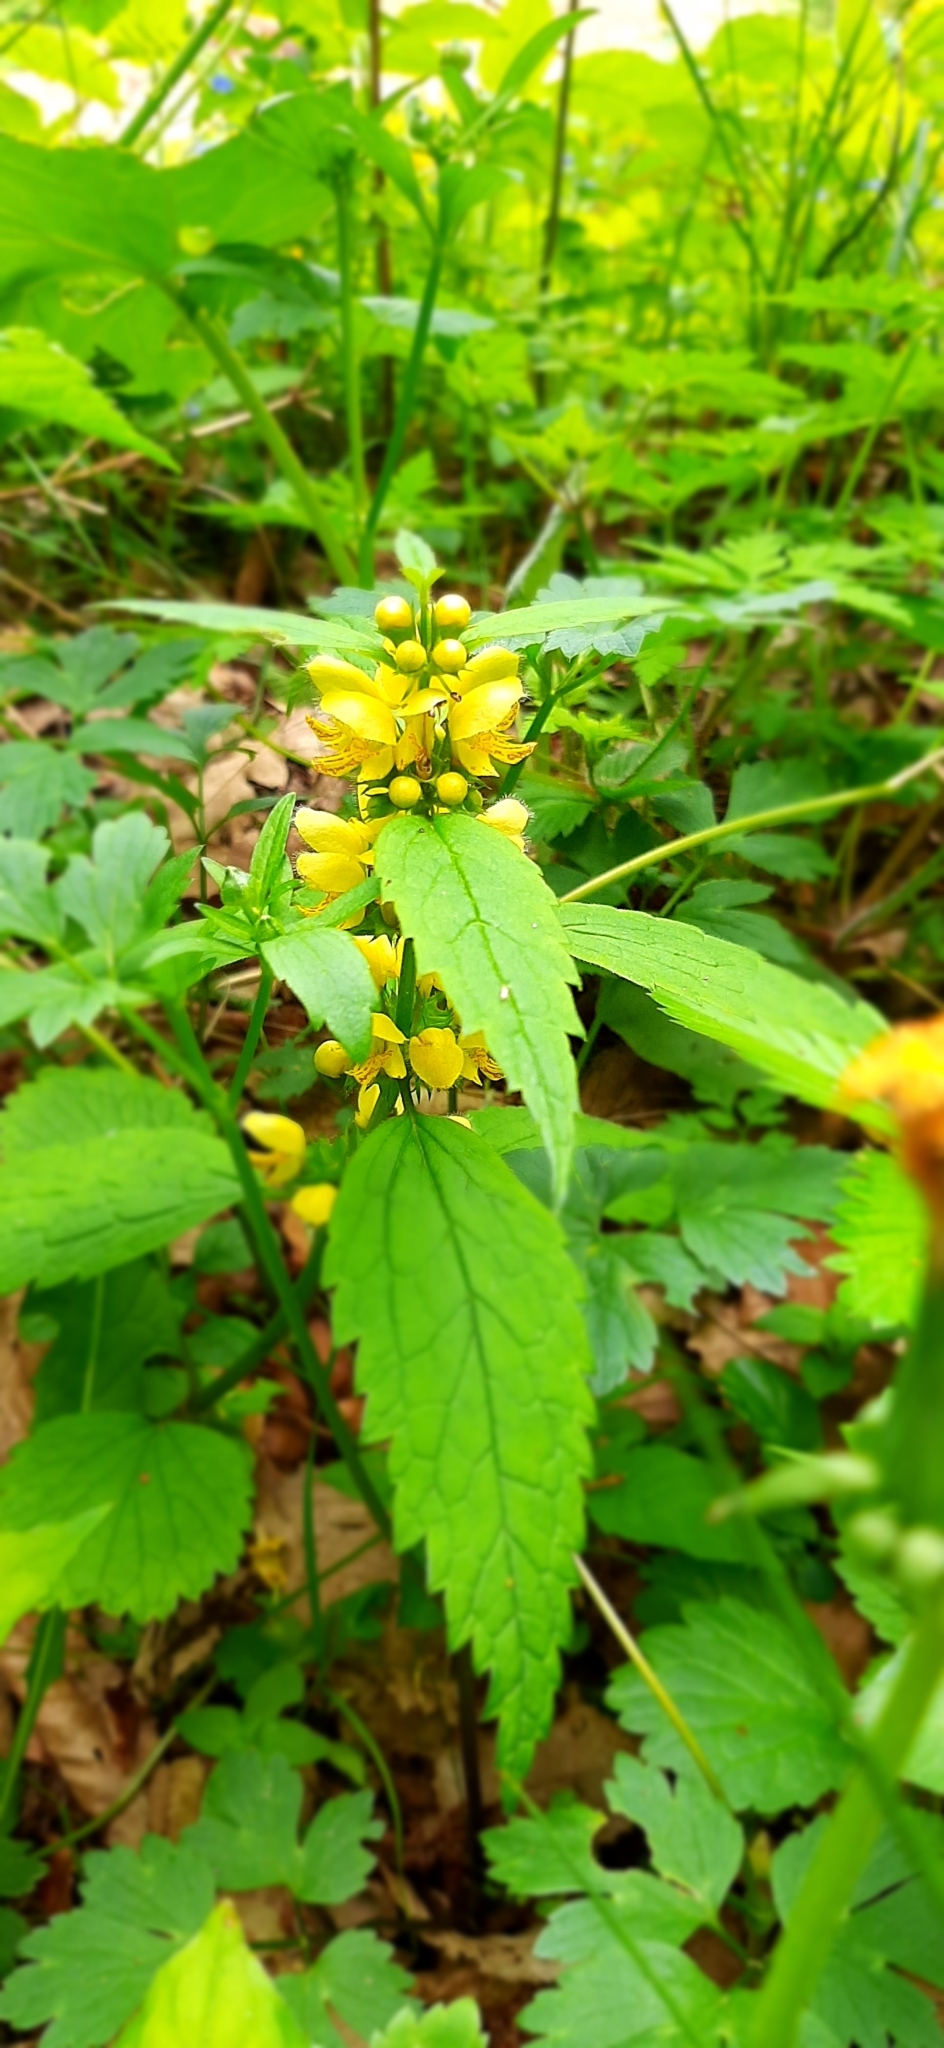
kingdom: Plantae
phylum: Tracheophyta
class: Magnoliopsida
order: Lamiales
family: Lamiaceae
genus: Lamium
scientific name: Lamium galeobdolon
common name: Yellow archangel
